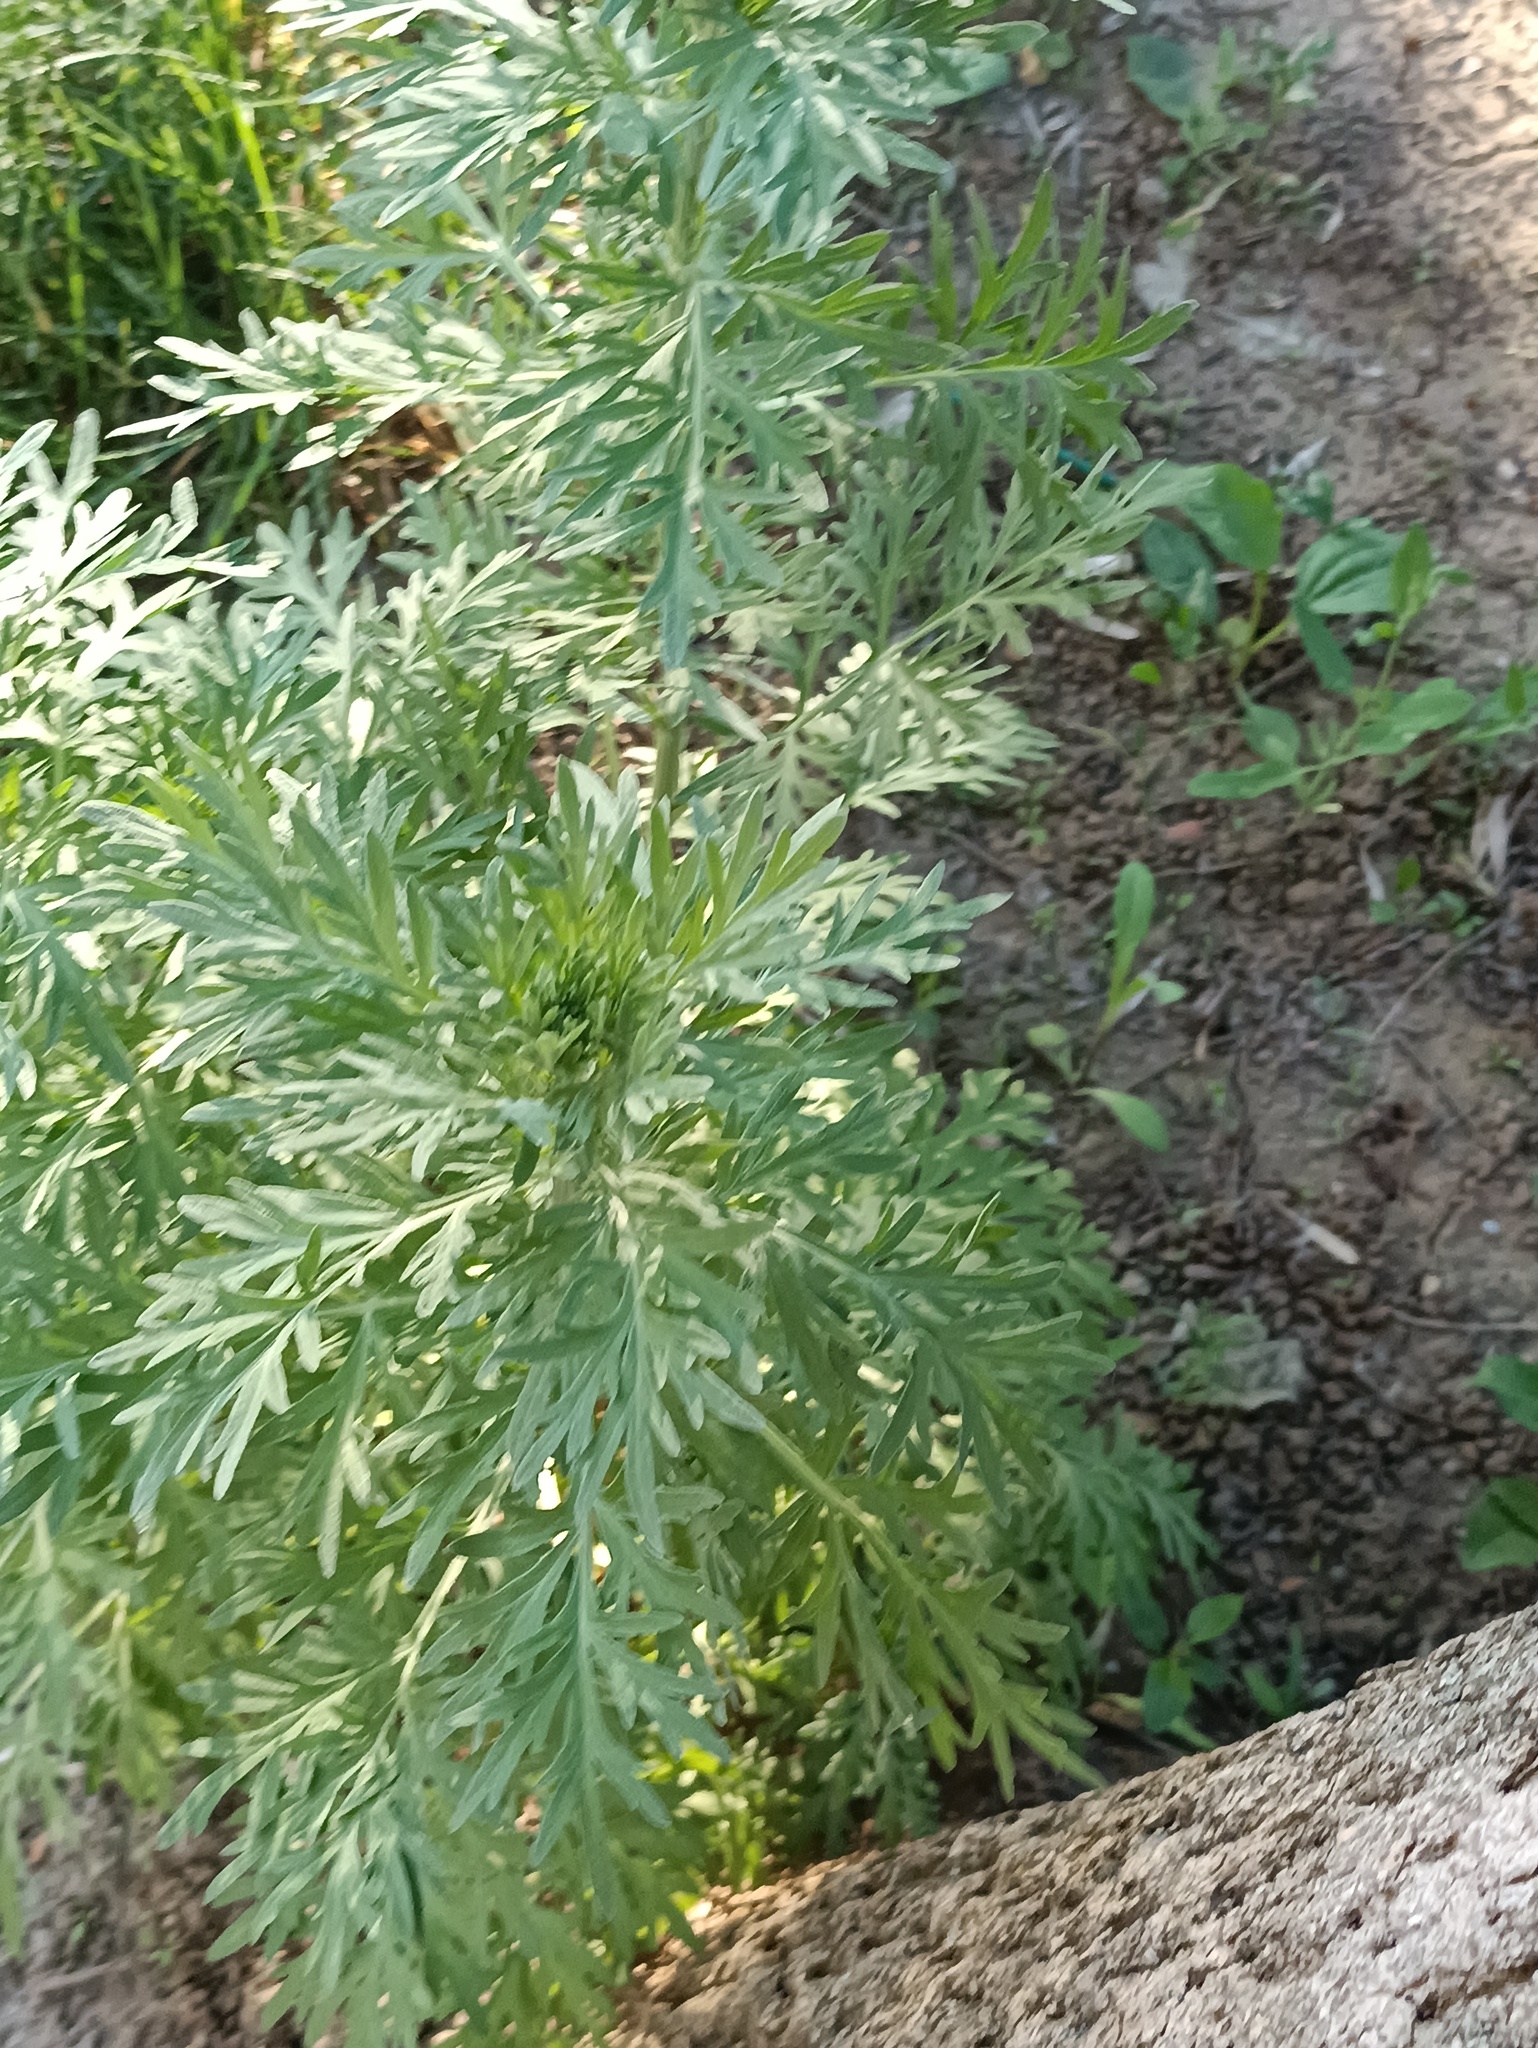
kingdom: Plantae
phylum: Tracheophyta
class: Magnoliopsida
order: Asterales
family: Asteraceae
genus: Artemisia
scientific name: Artemisia absinthium
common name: Wormwood
